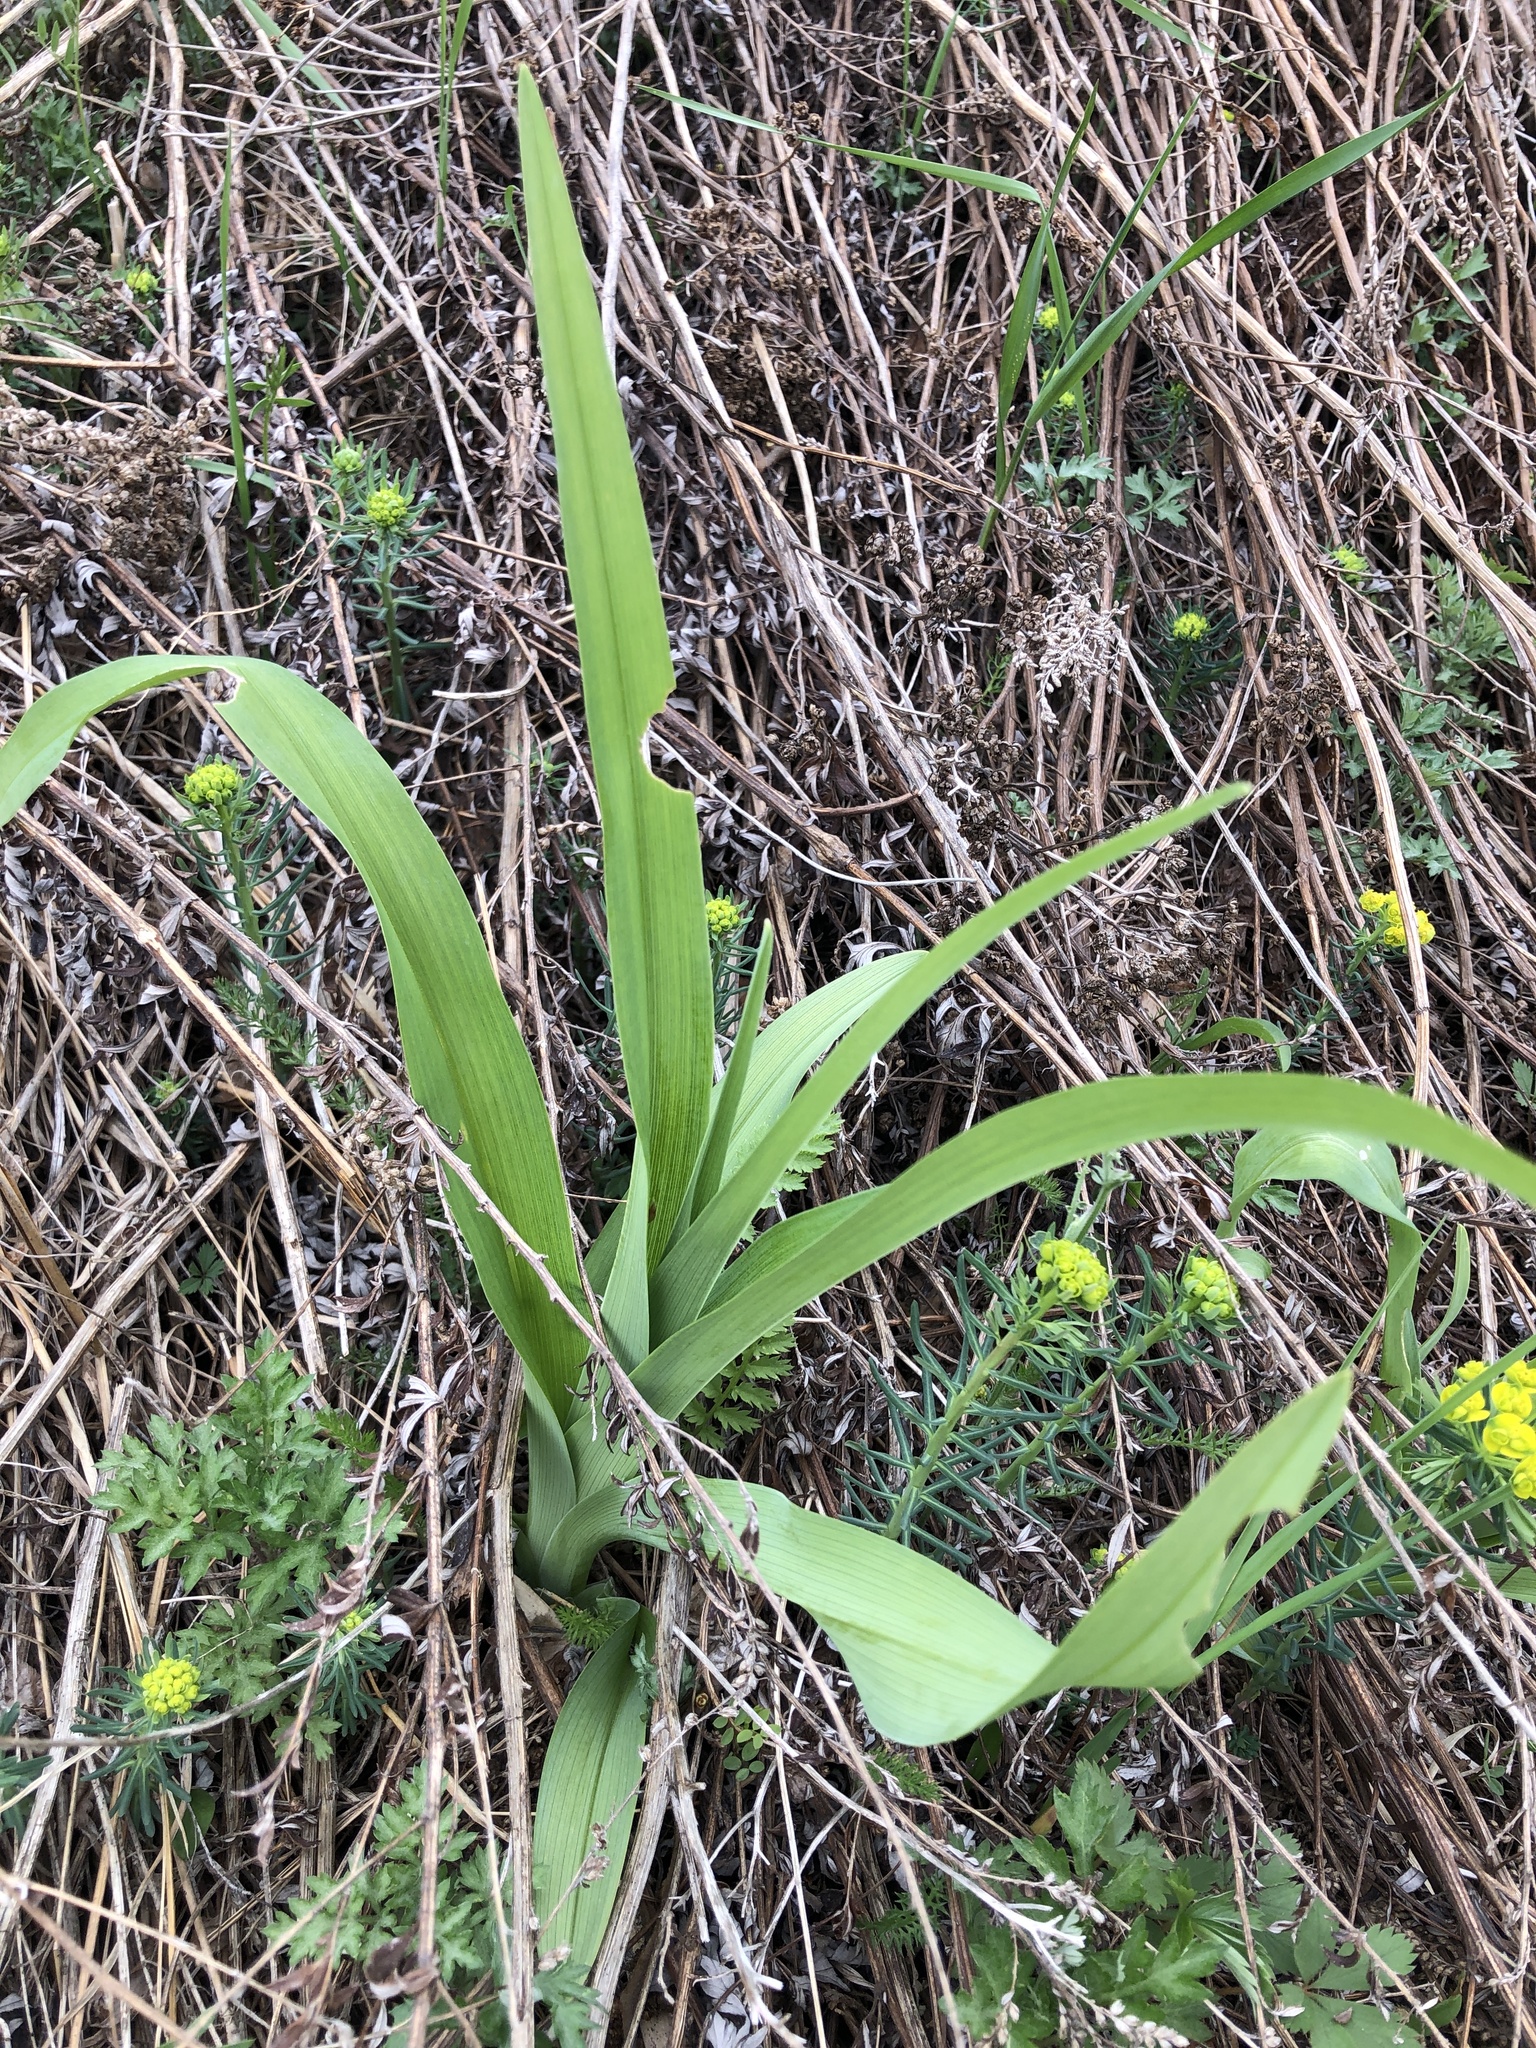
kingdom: Plantae
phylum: Tracheophyta
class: Liliopsida
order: Asparagales
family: Asphodelaceae
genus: Hemerocallis
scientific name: Hemerocallis fulva
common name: Orange day-lily
